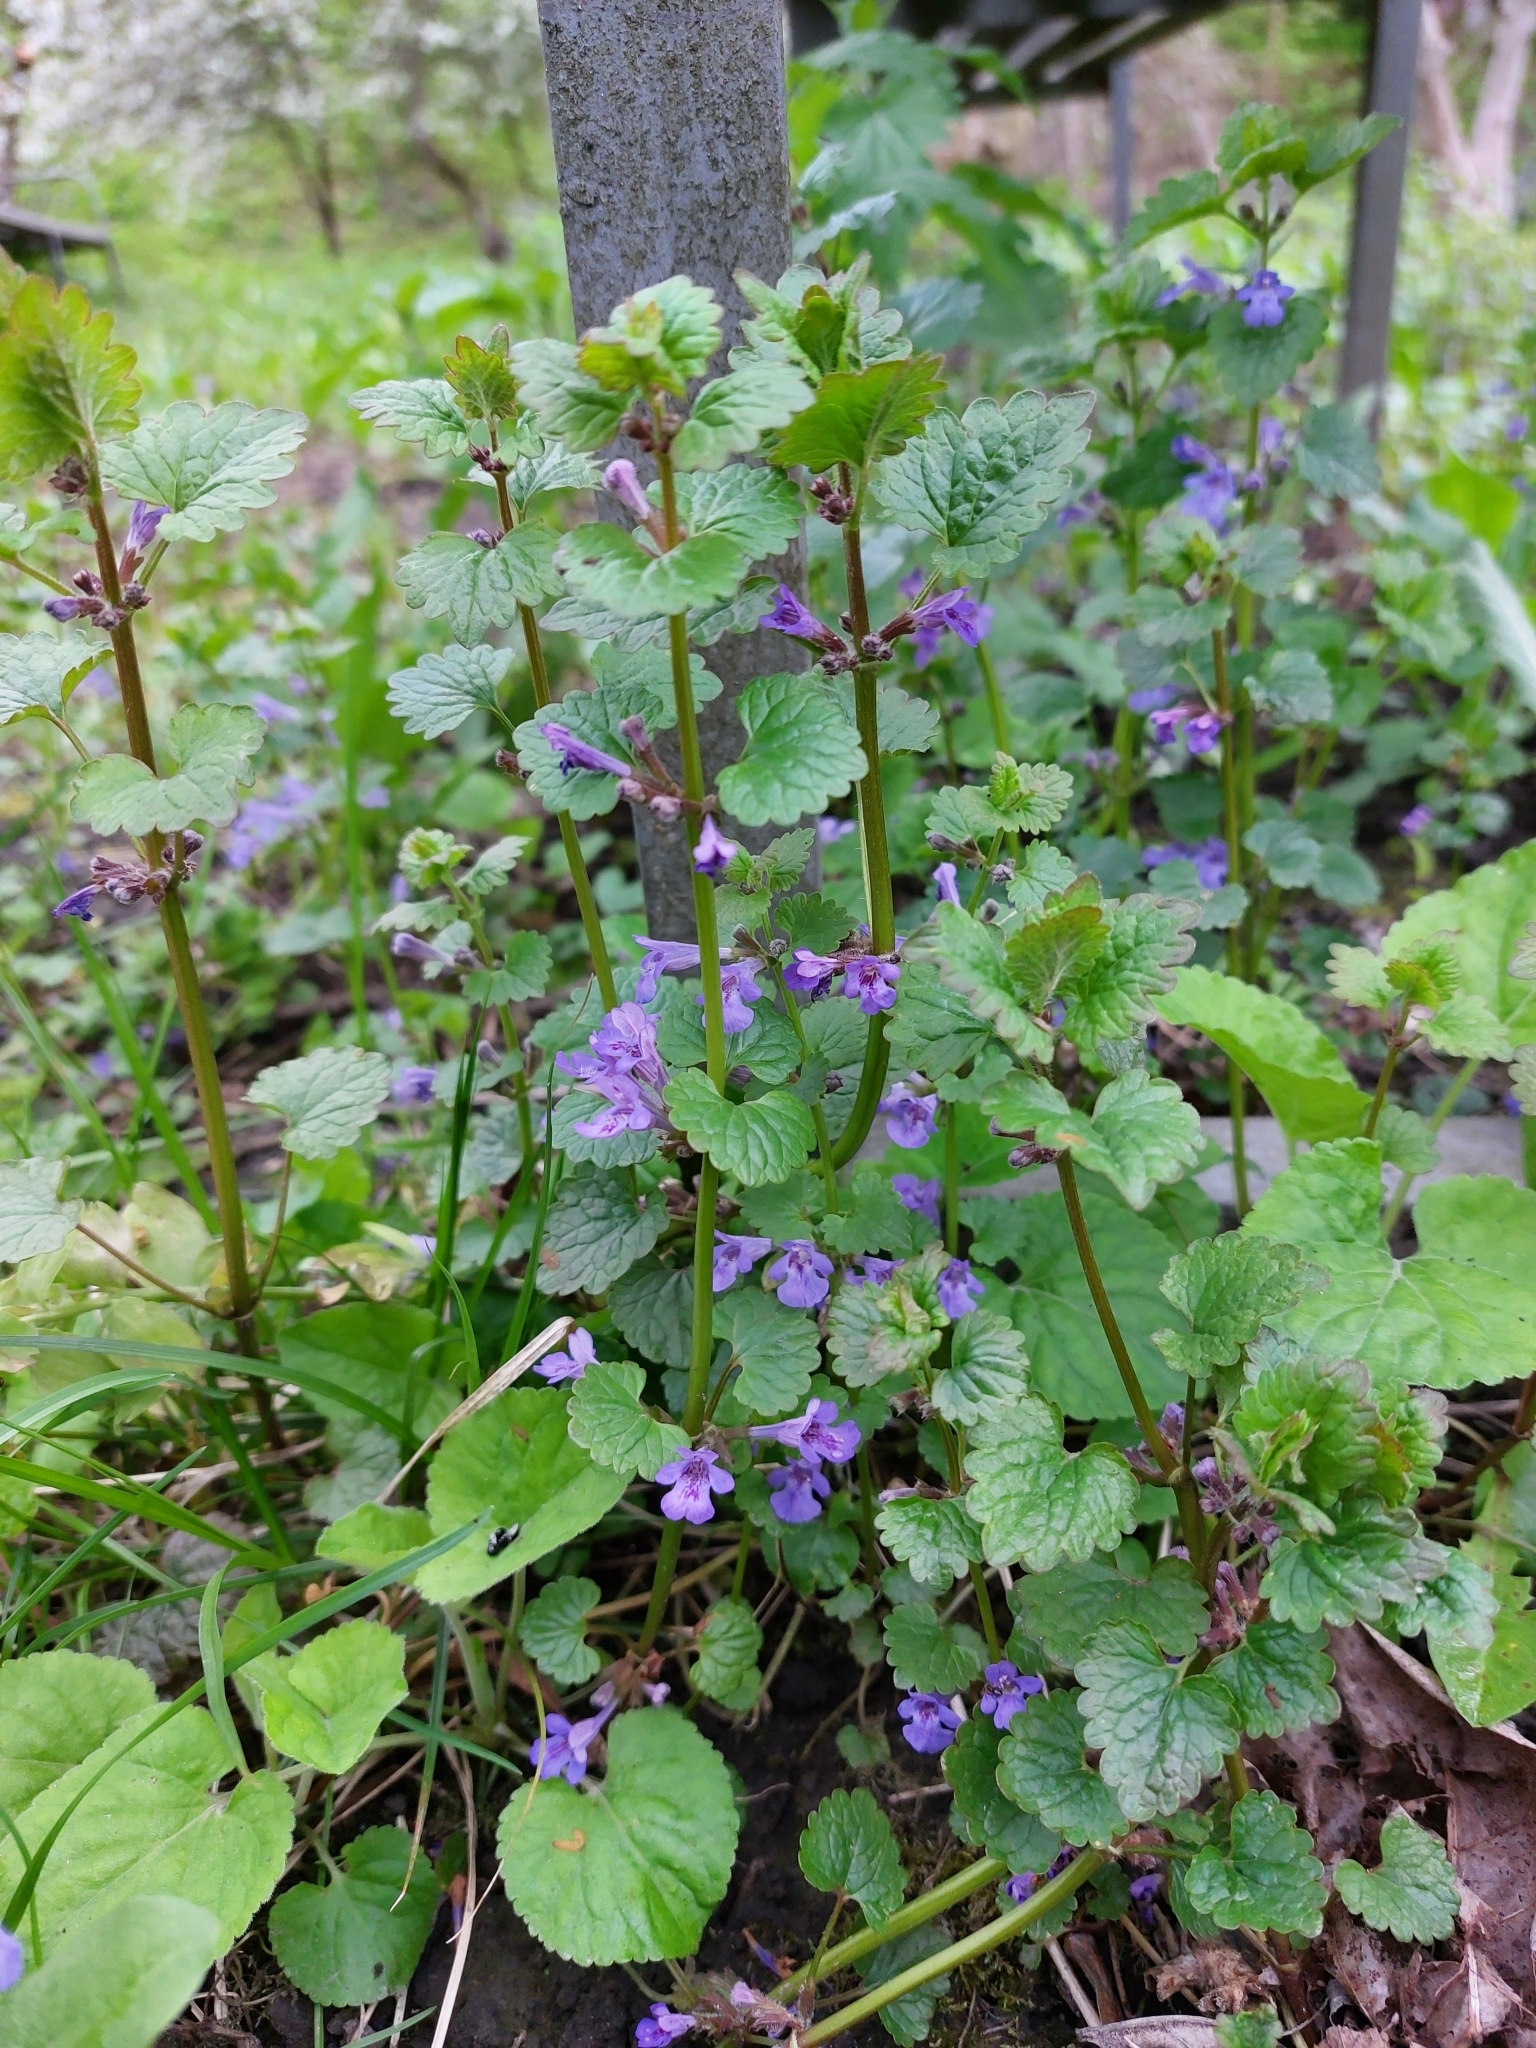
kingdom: Plantae
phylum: Tracheophyta
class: Magnoliopsida
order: Lamiales
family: Lamiaceae
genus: Glechoma
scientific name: Glechoma hederacea
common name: Ground ivy
